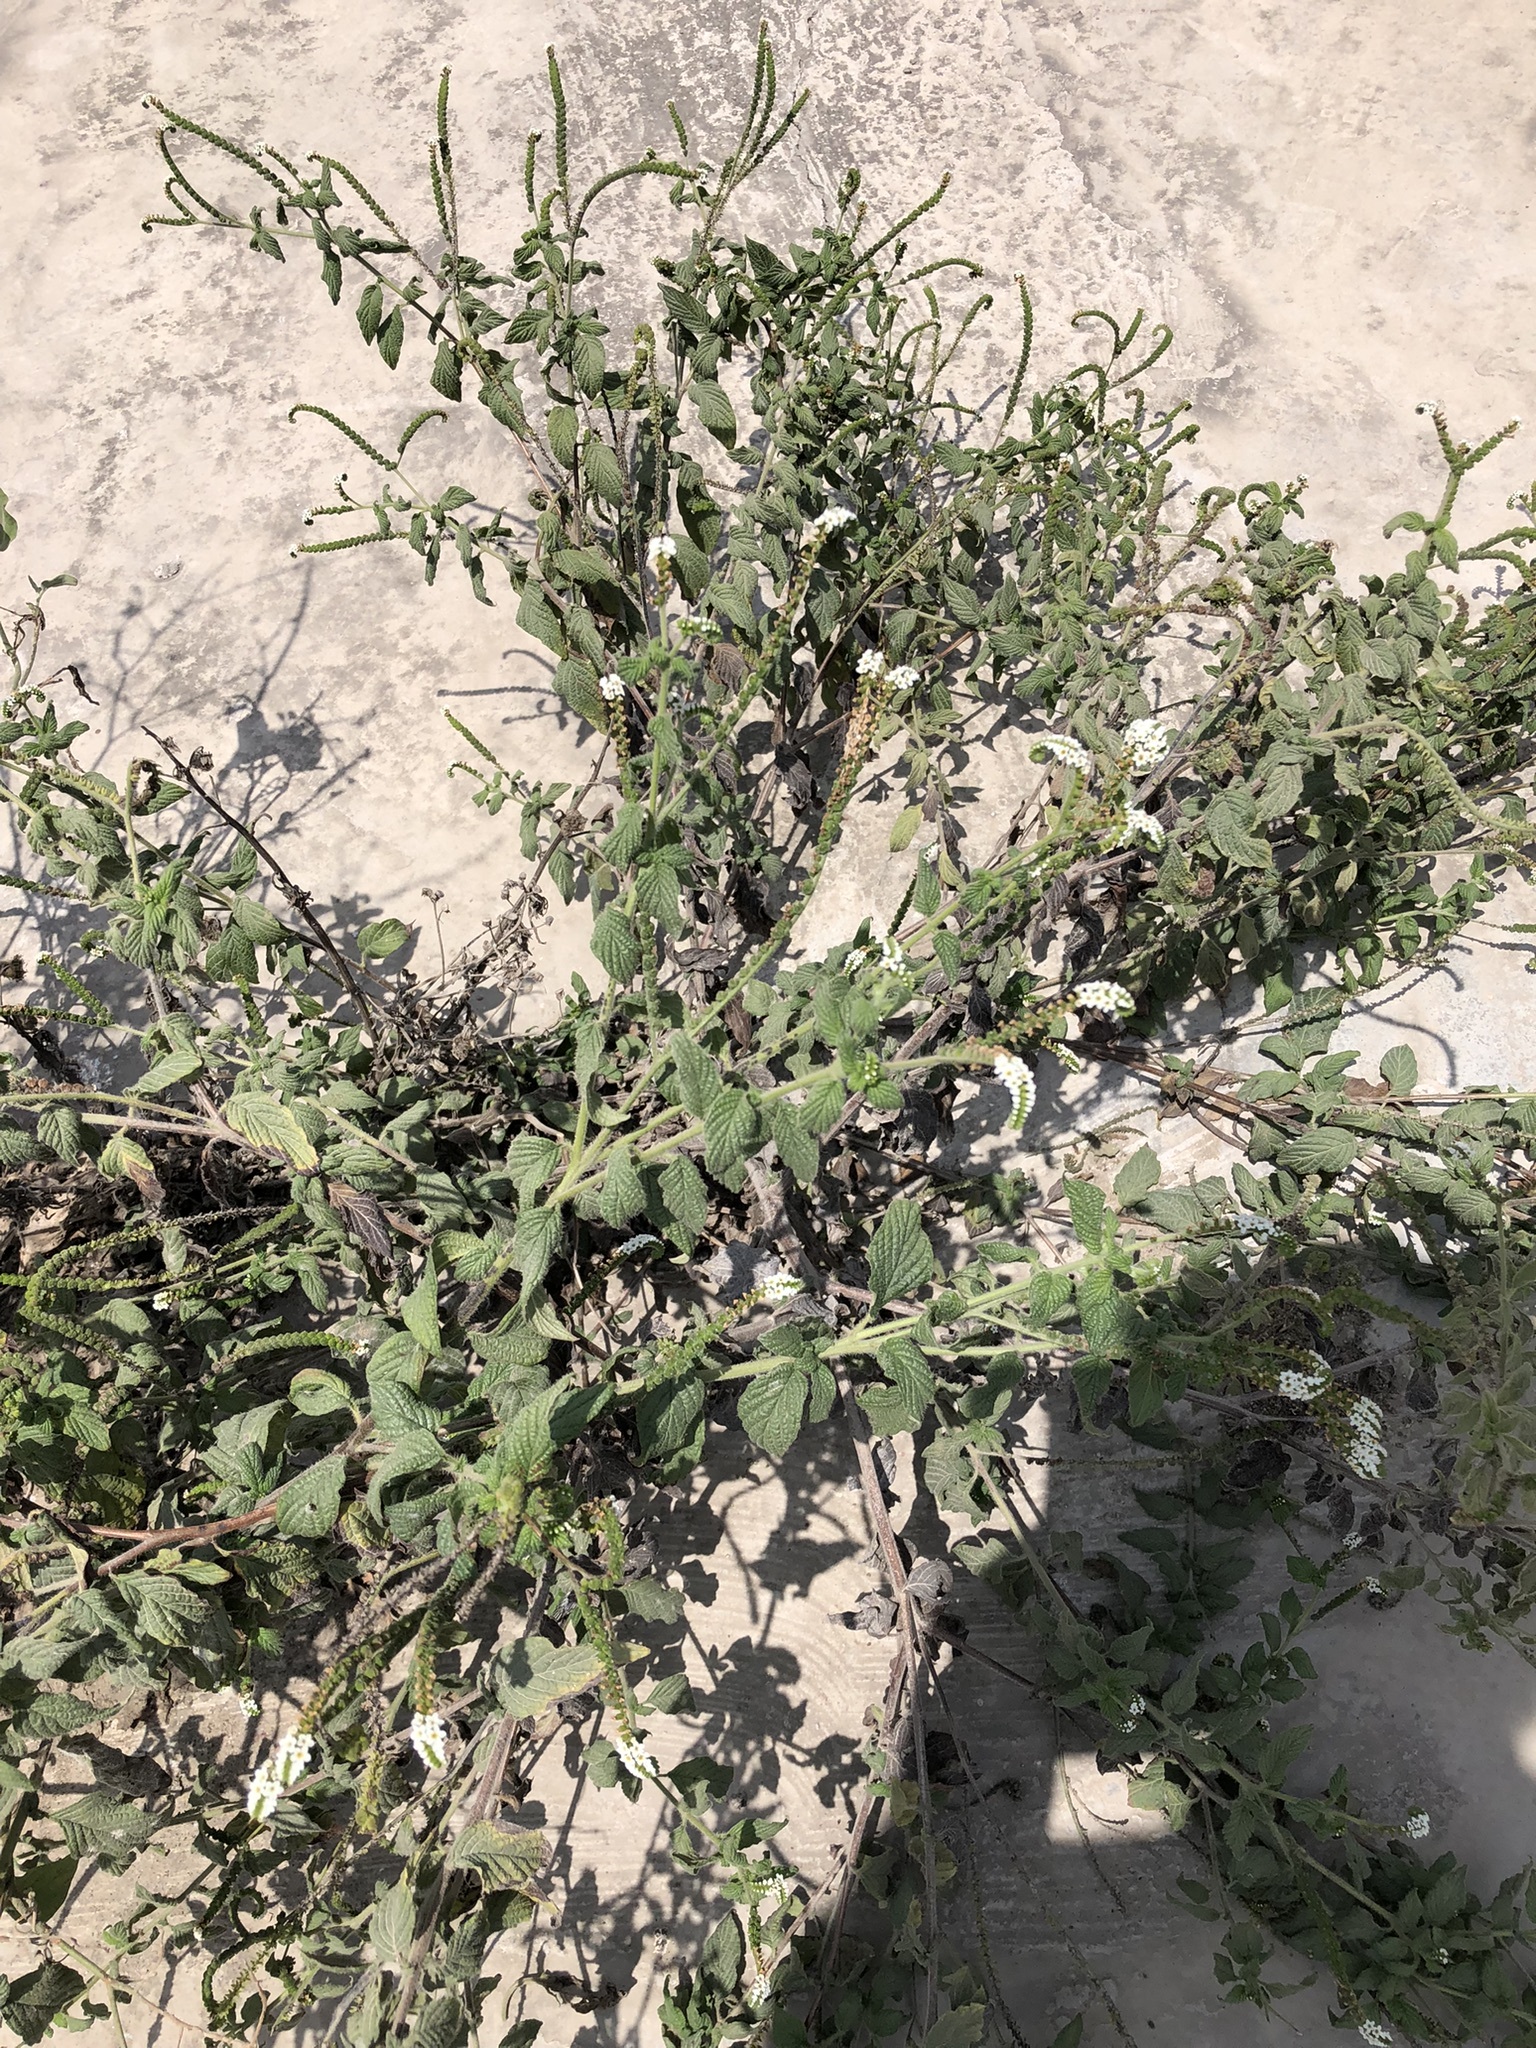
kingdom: Plantae
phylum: Tracheophyta
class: Magnoliopsida
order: Boraginales
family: Heliotropiaceae
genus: Heliotropium
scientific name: Heliotropium angiospermum
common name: Eye bright
